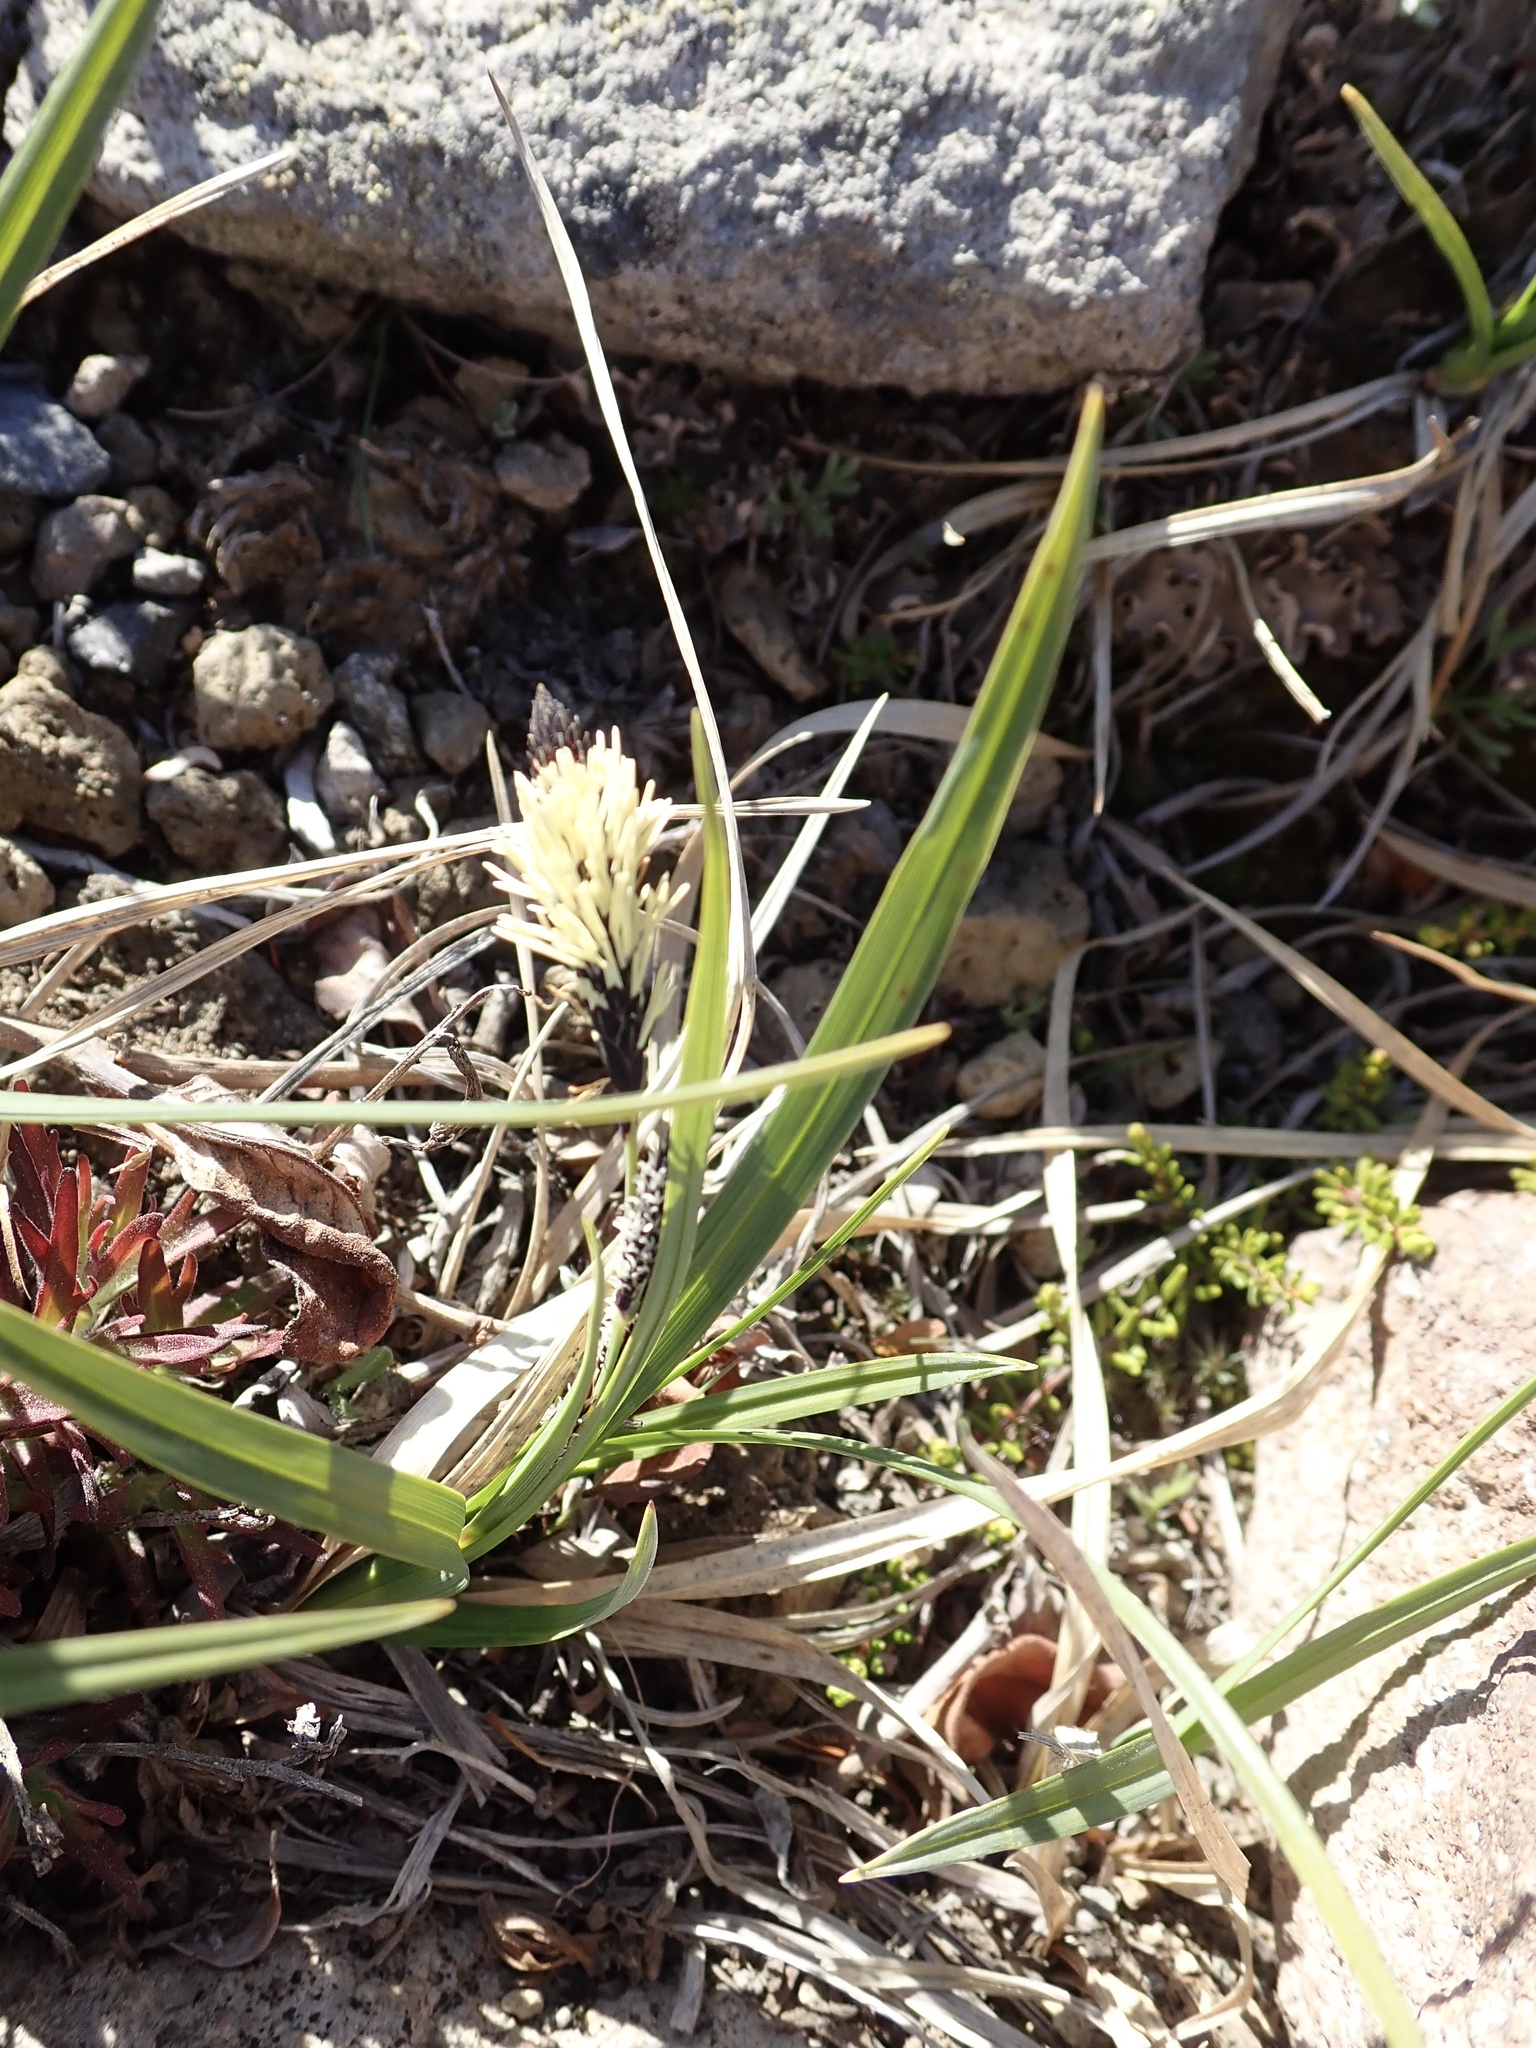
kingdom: Plantae
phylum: Tracheophyta
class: Liliopsida
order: Poales
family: Cyperaceae
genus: Carex
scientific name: Carex spectabilis
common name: Northwestern showy sedge
